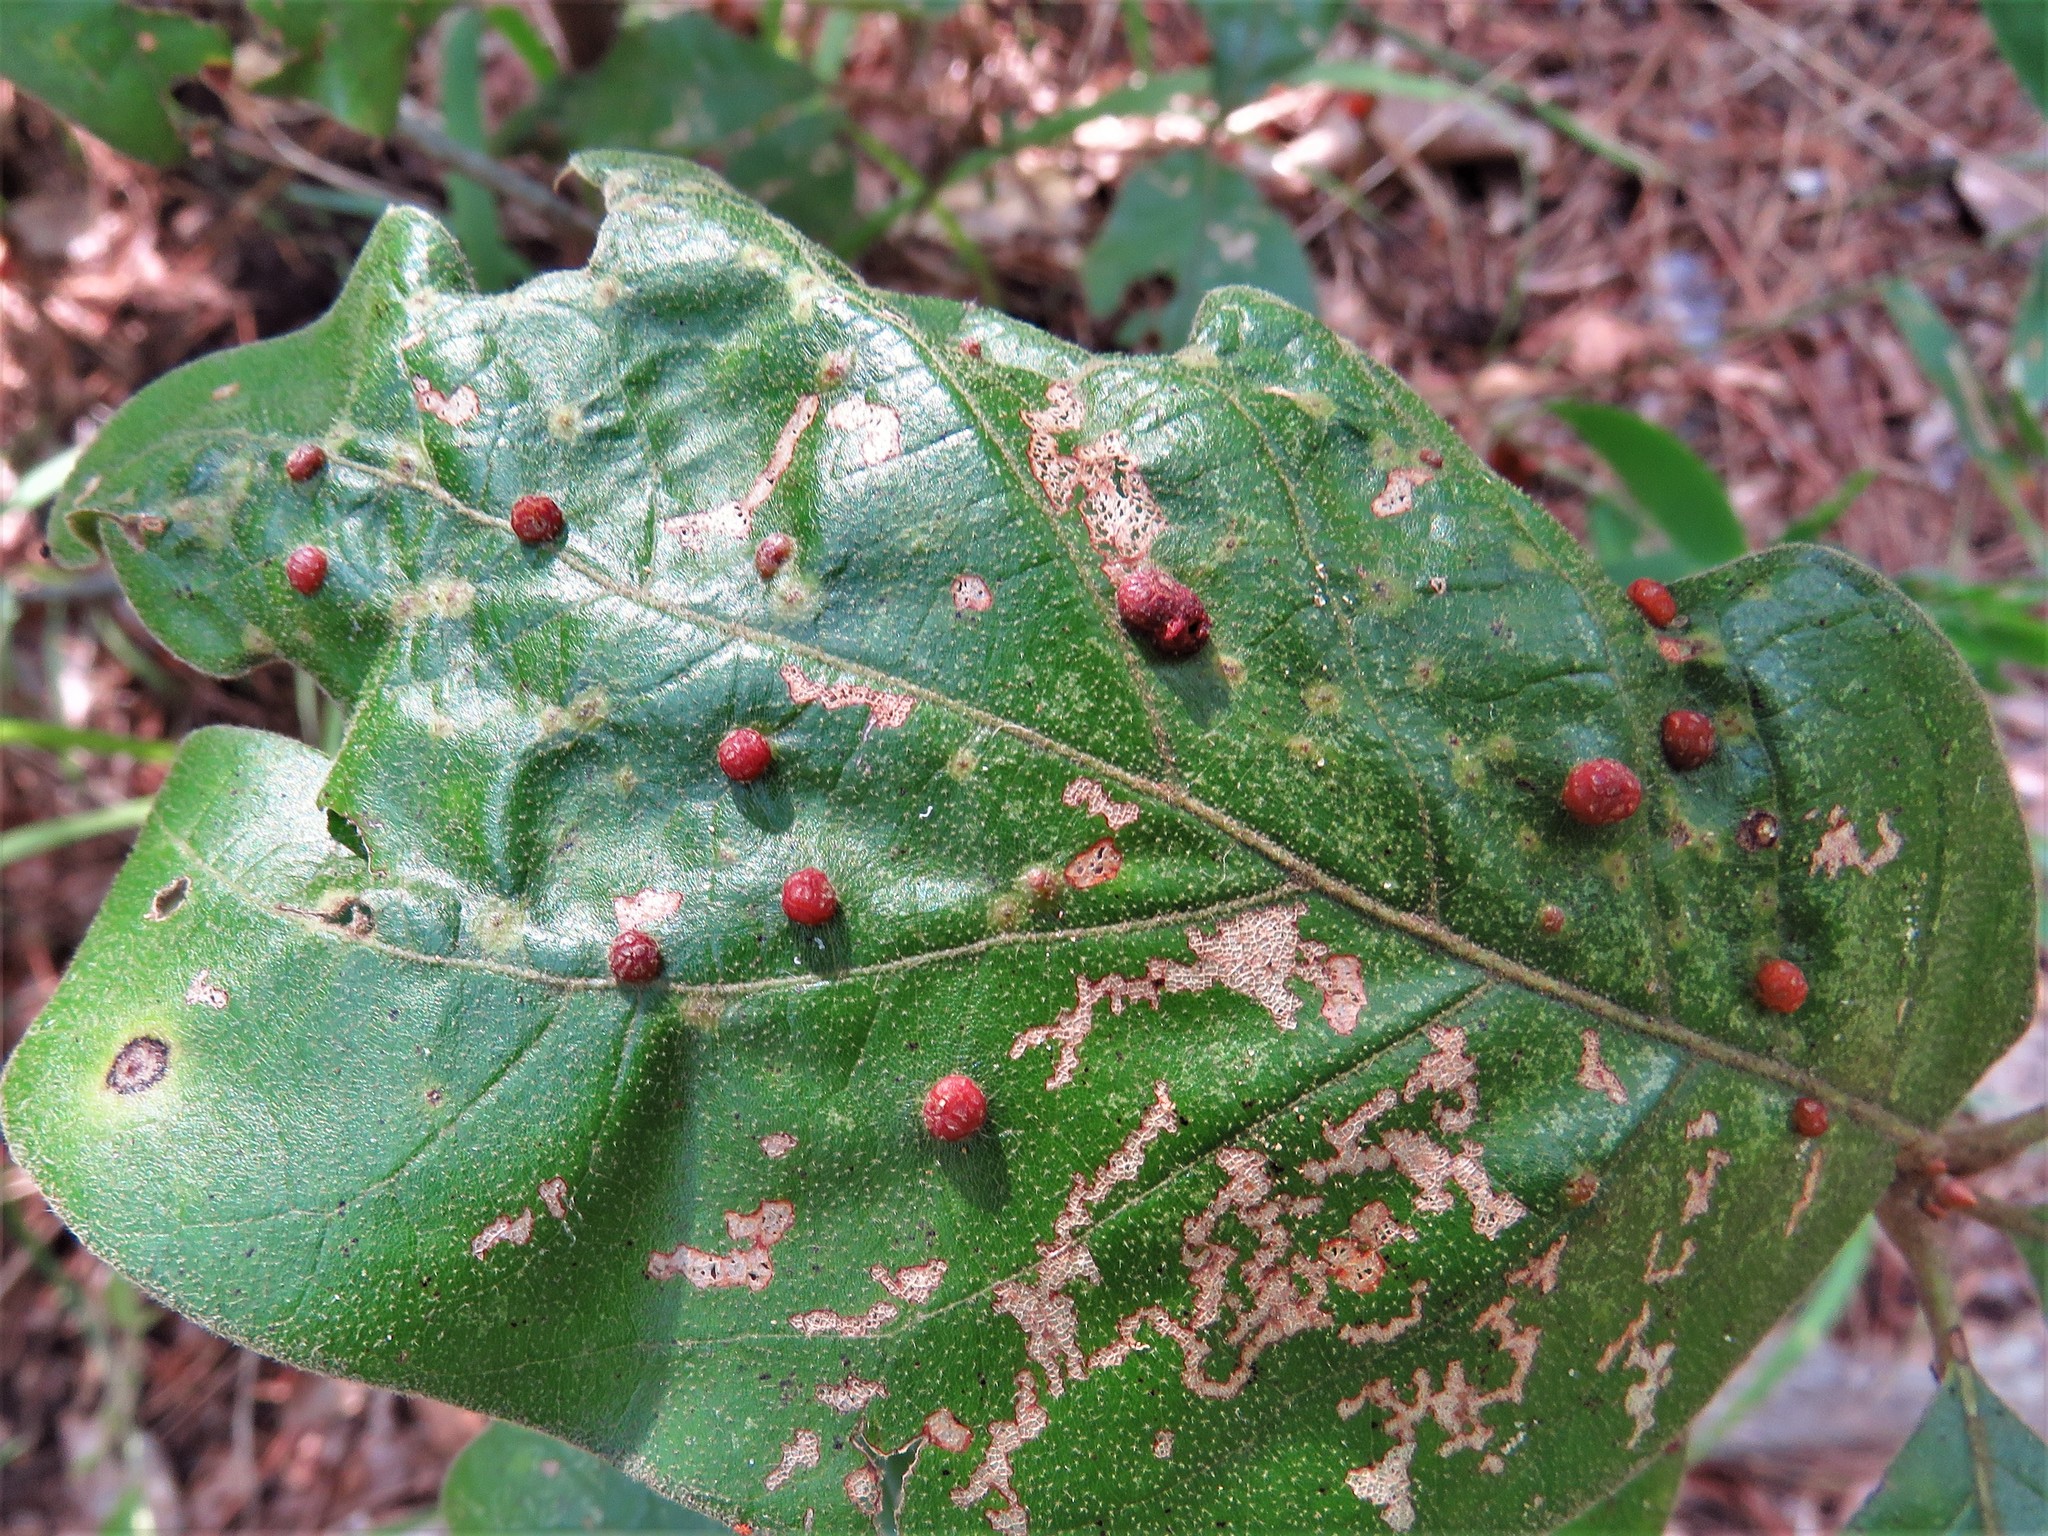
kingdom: Animalia
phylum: Arthropoda
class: Insecta
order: Diptera
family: Cecidomyiidae
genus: Polystepha
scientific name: Polystepha pilulae
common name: Oak leaf gall midge
